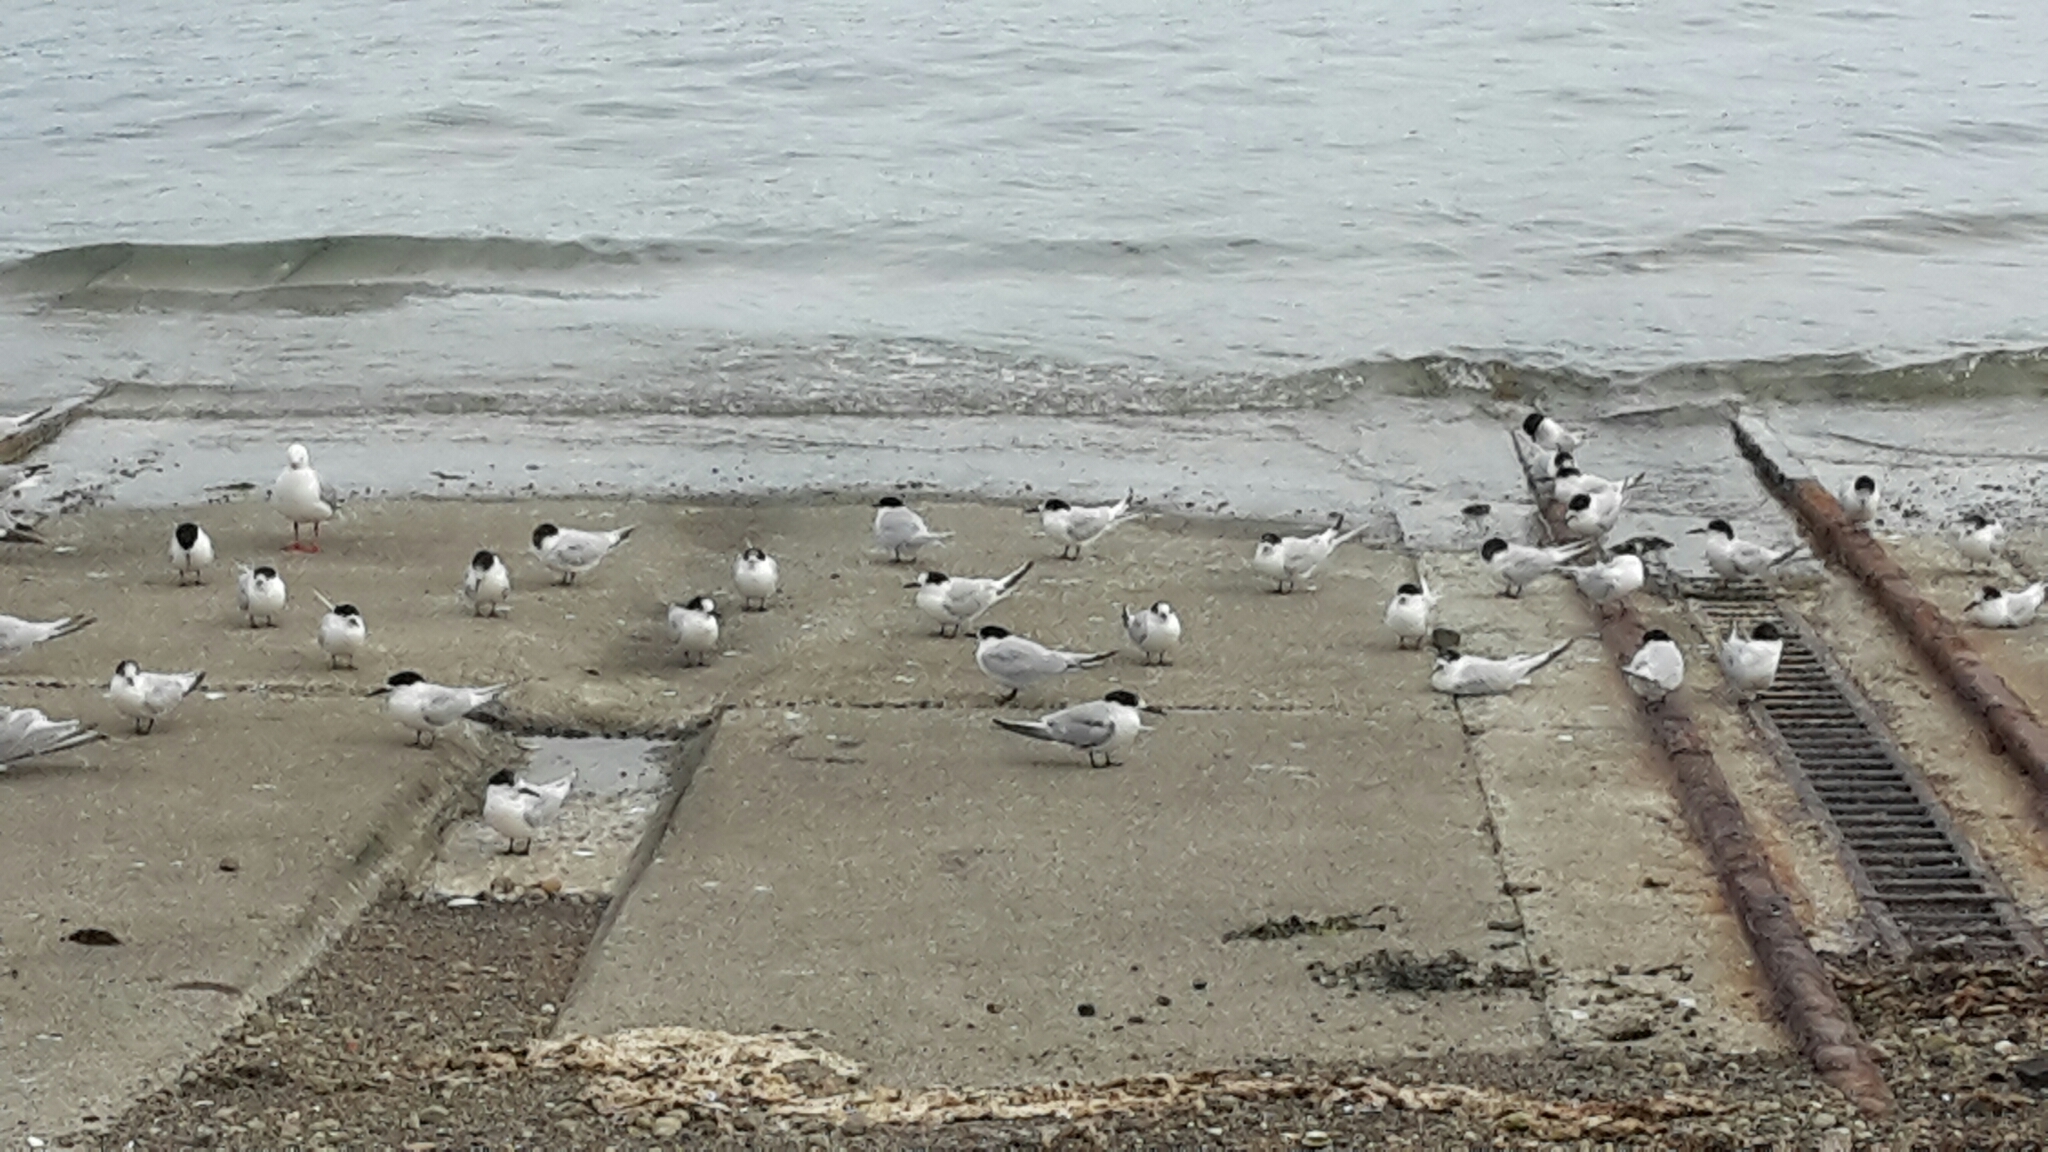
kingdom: Animalia
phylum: Chordata
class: Aves
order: Charadriiformes
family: Laridae
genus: Sterna
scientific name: Sterna striata
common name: White-fronted tern
